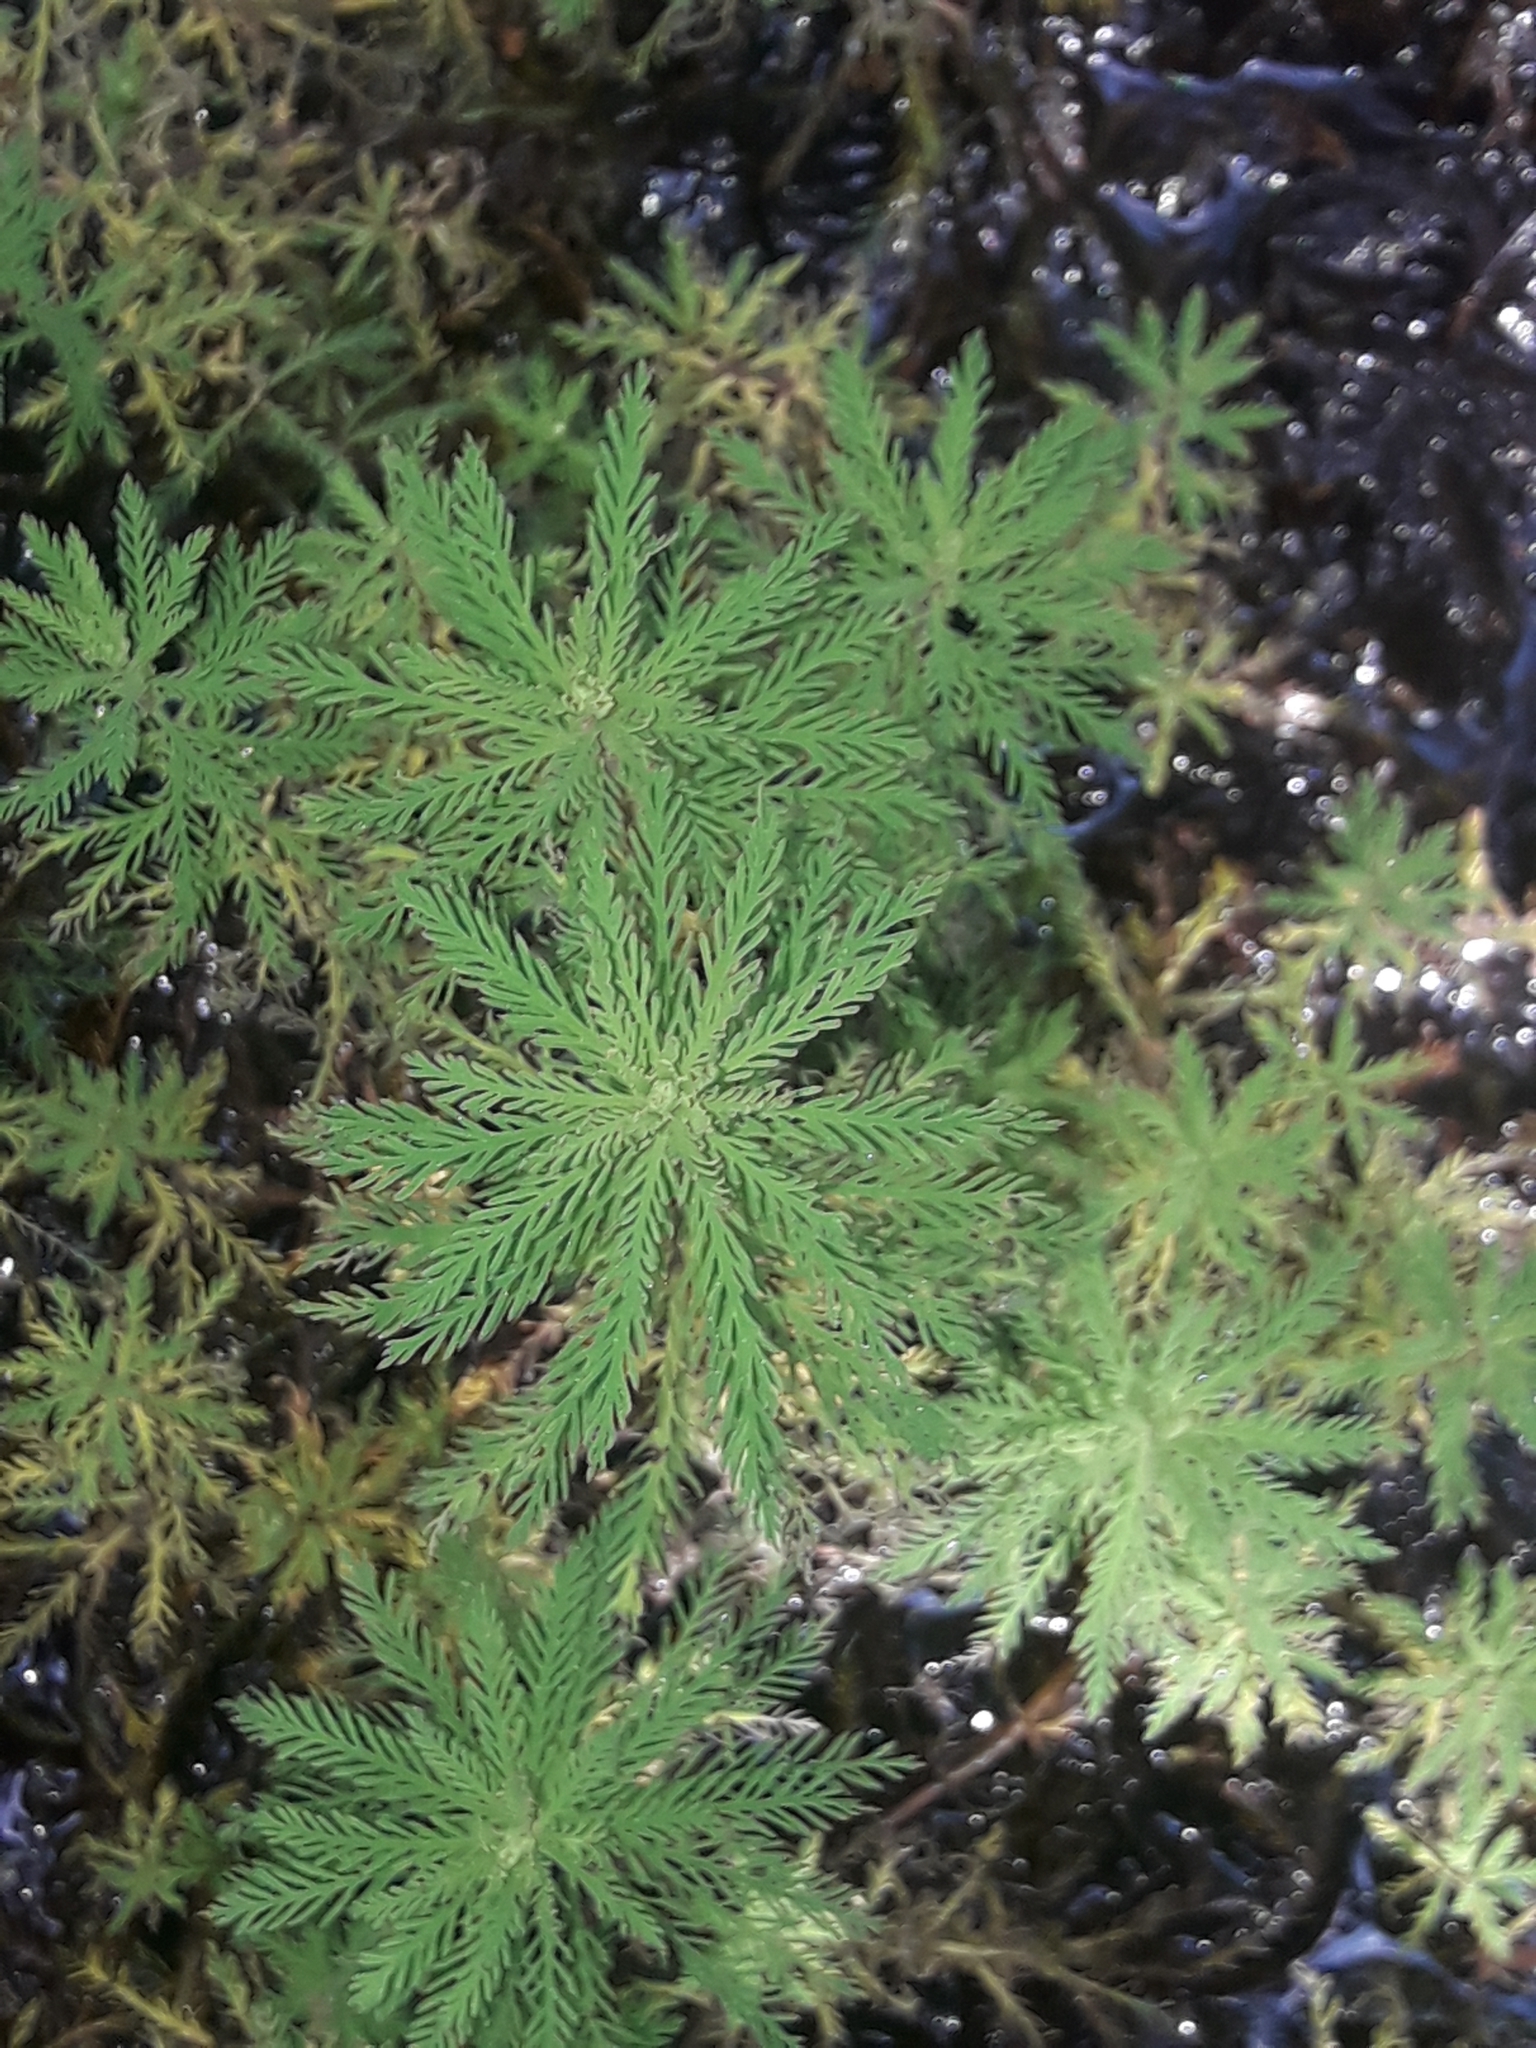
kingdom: Plantae
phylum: Tracheophyta
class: Magnoliopsida
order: Saxifragales
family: Haloragaceae
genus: Myriophyllum
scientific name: Myriophyllum robustum
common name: Stout water milfoil
